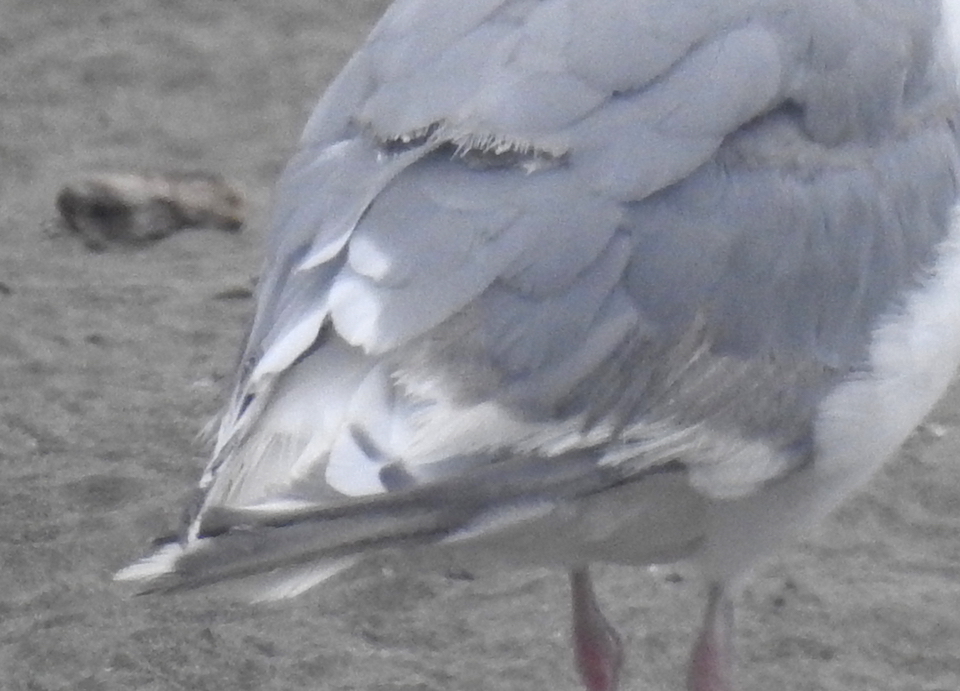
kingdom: Animalia
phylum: Chordata
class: Aves
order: Charadriiformes
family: Laridae
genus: Larus
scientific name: Larus glaucescens
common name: Glaucous-winged gull
